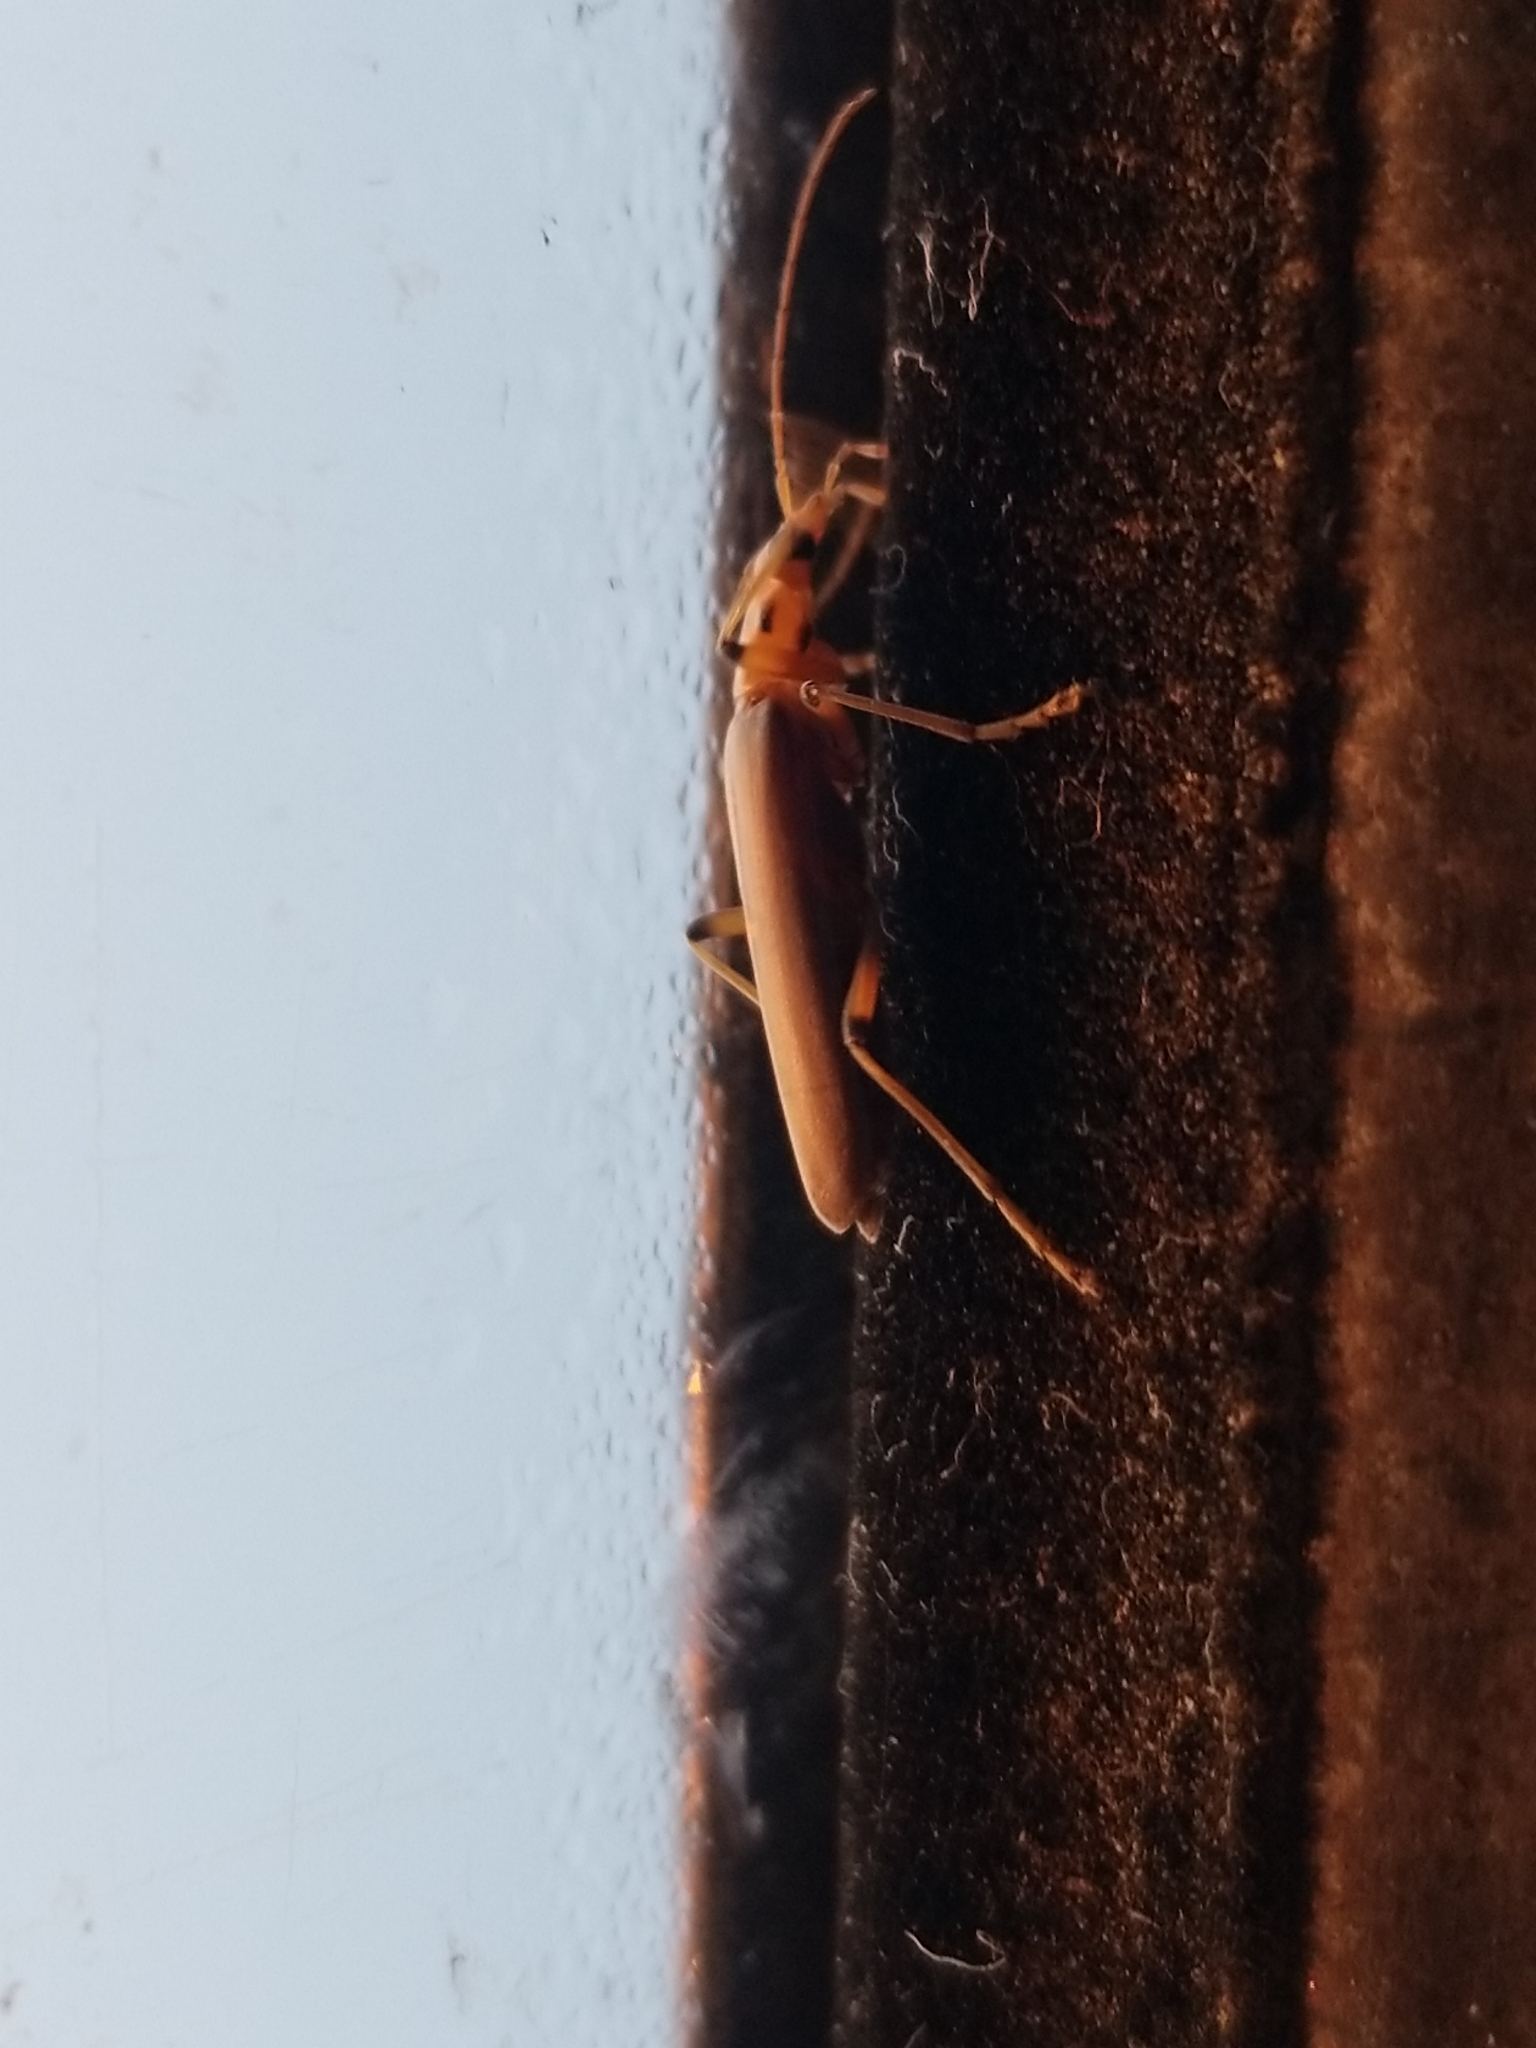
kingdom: Animalia
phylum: Arthropoda
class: Insecta
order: Coleoptera
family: Oedemeridae
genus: Copidita
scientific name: Copidita quadrimaculata
